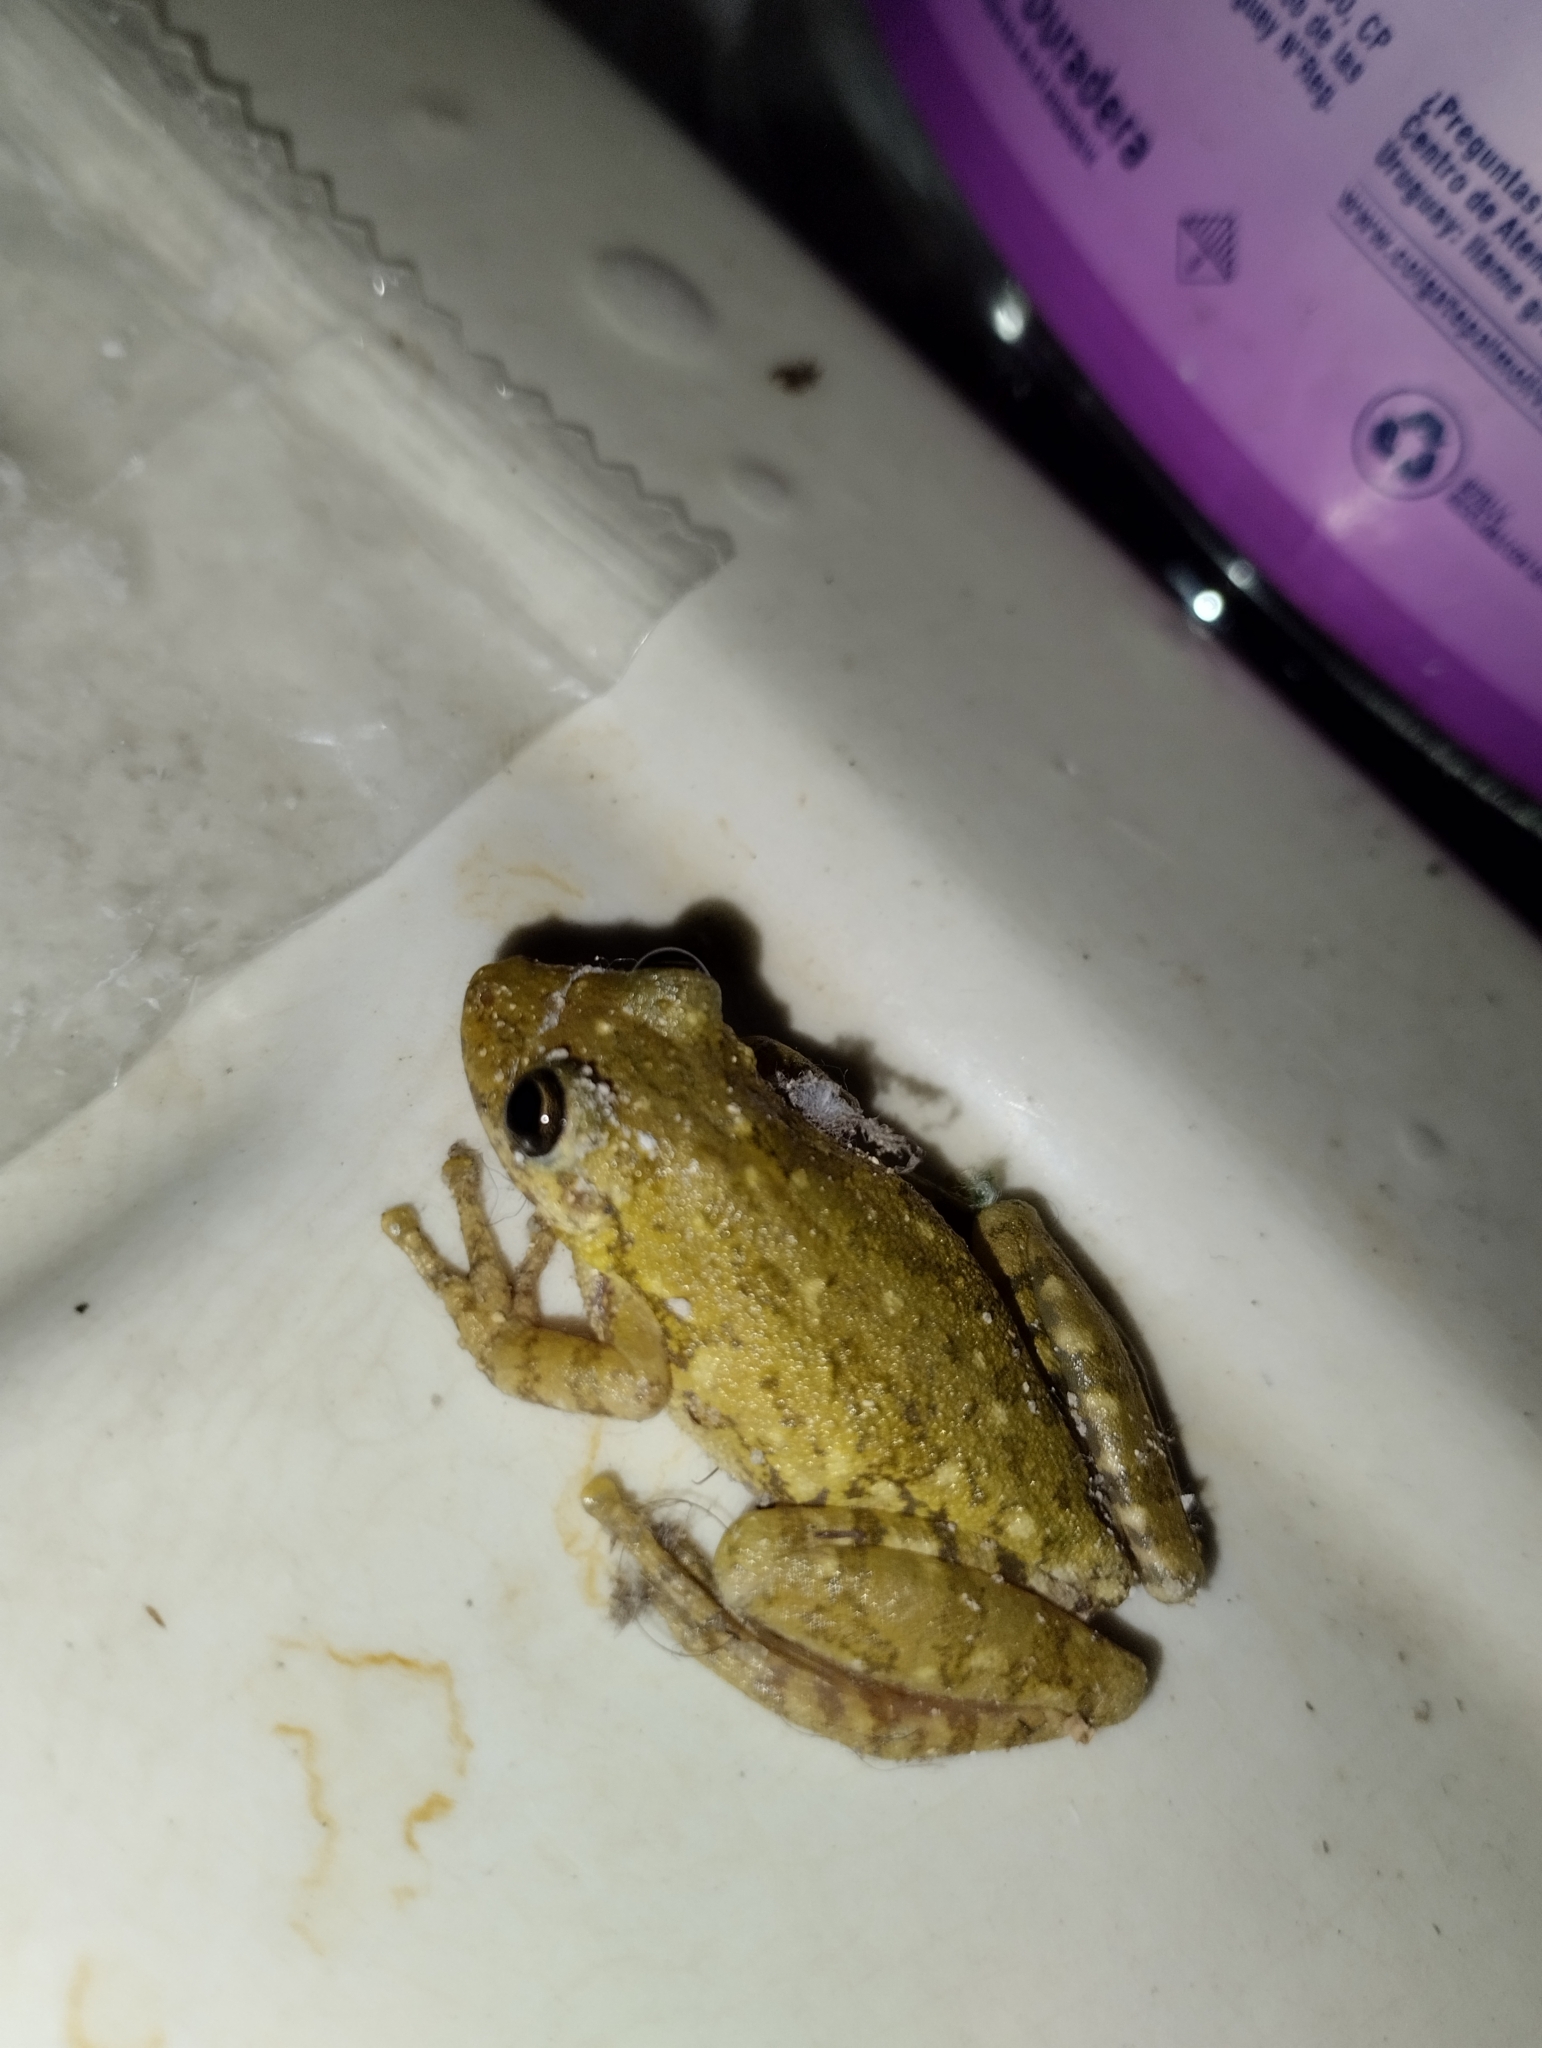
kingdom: Animalia
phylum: Chordata
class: Amphibia
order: Anura
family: Hylidae
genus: Scinax
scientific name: Scinax granulatus
